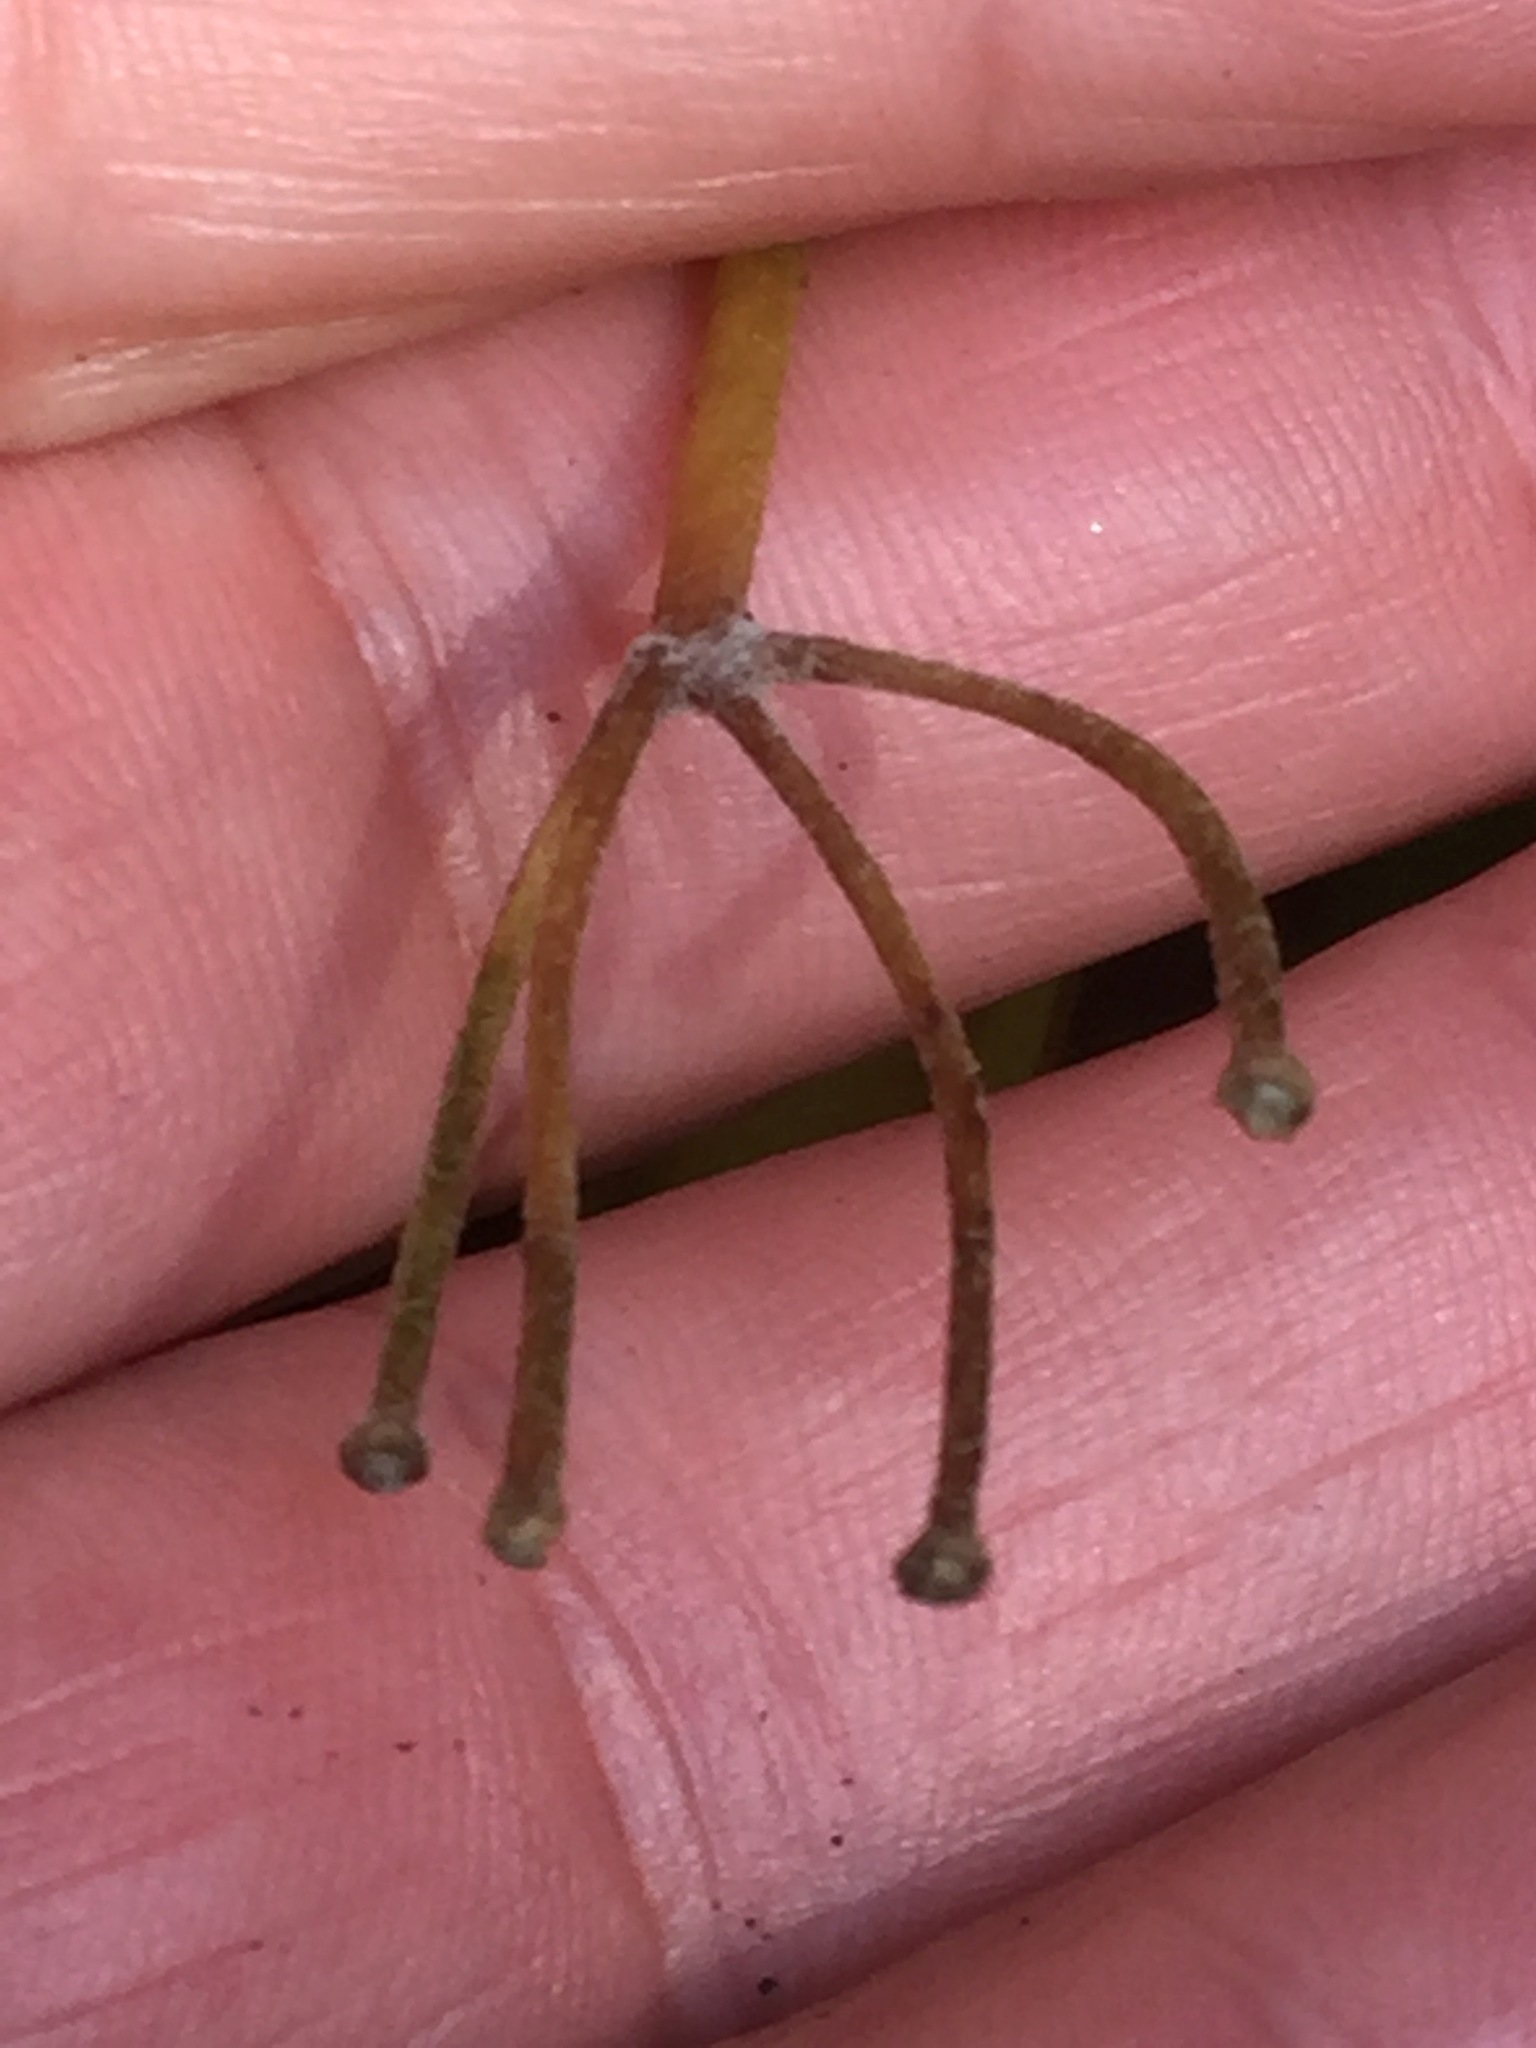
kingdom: Plantae
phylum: Tracheophyta
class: Liliopsida
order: Liliales
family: Liliaceae
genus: Clintonia
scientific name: Clintonia borealis
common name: Yellow clintonia
